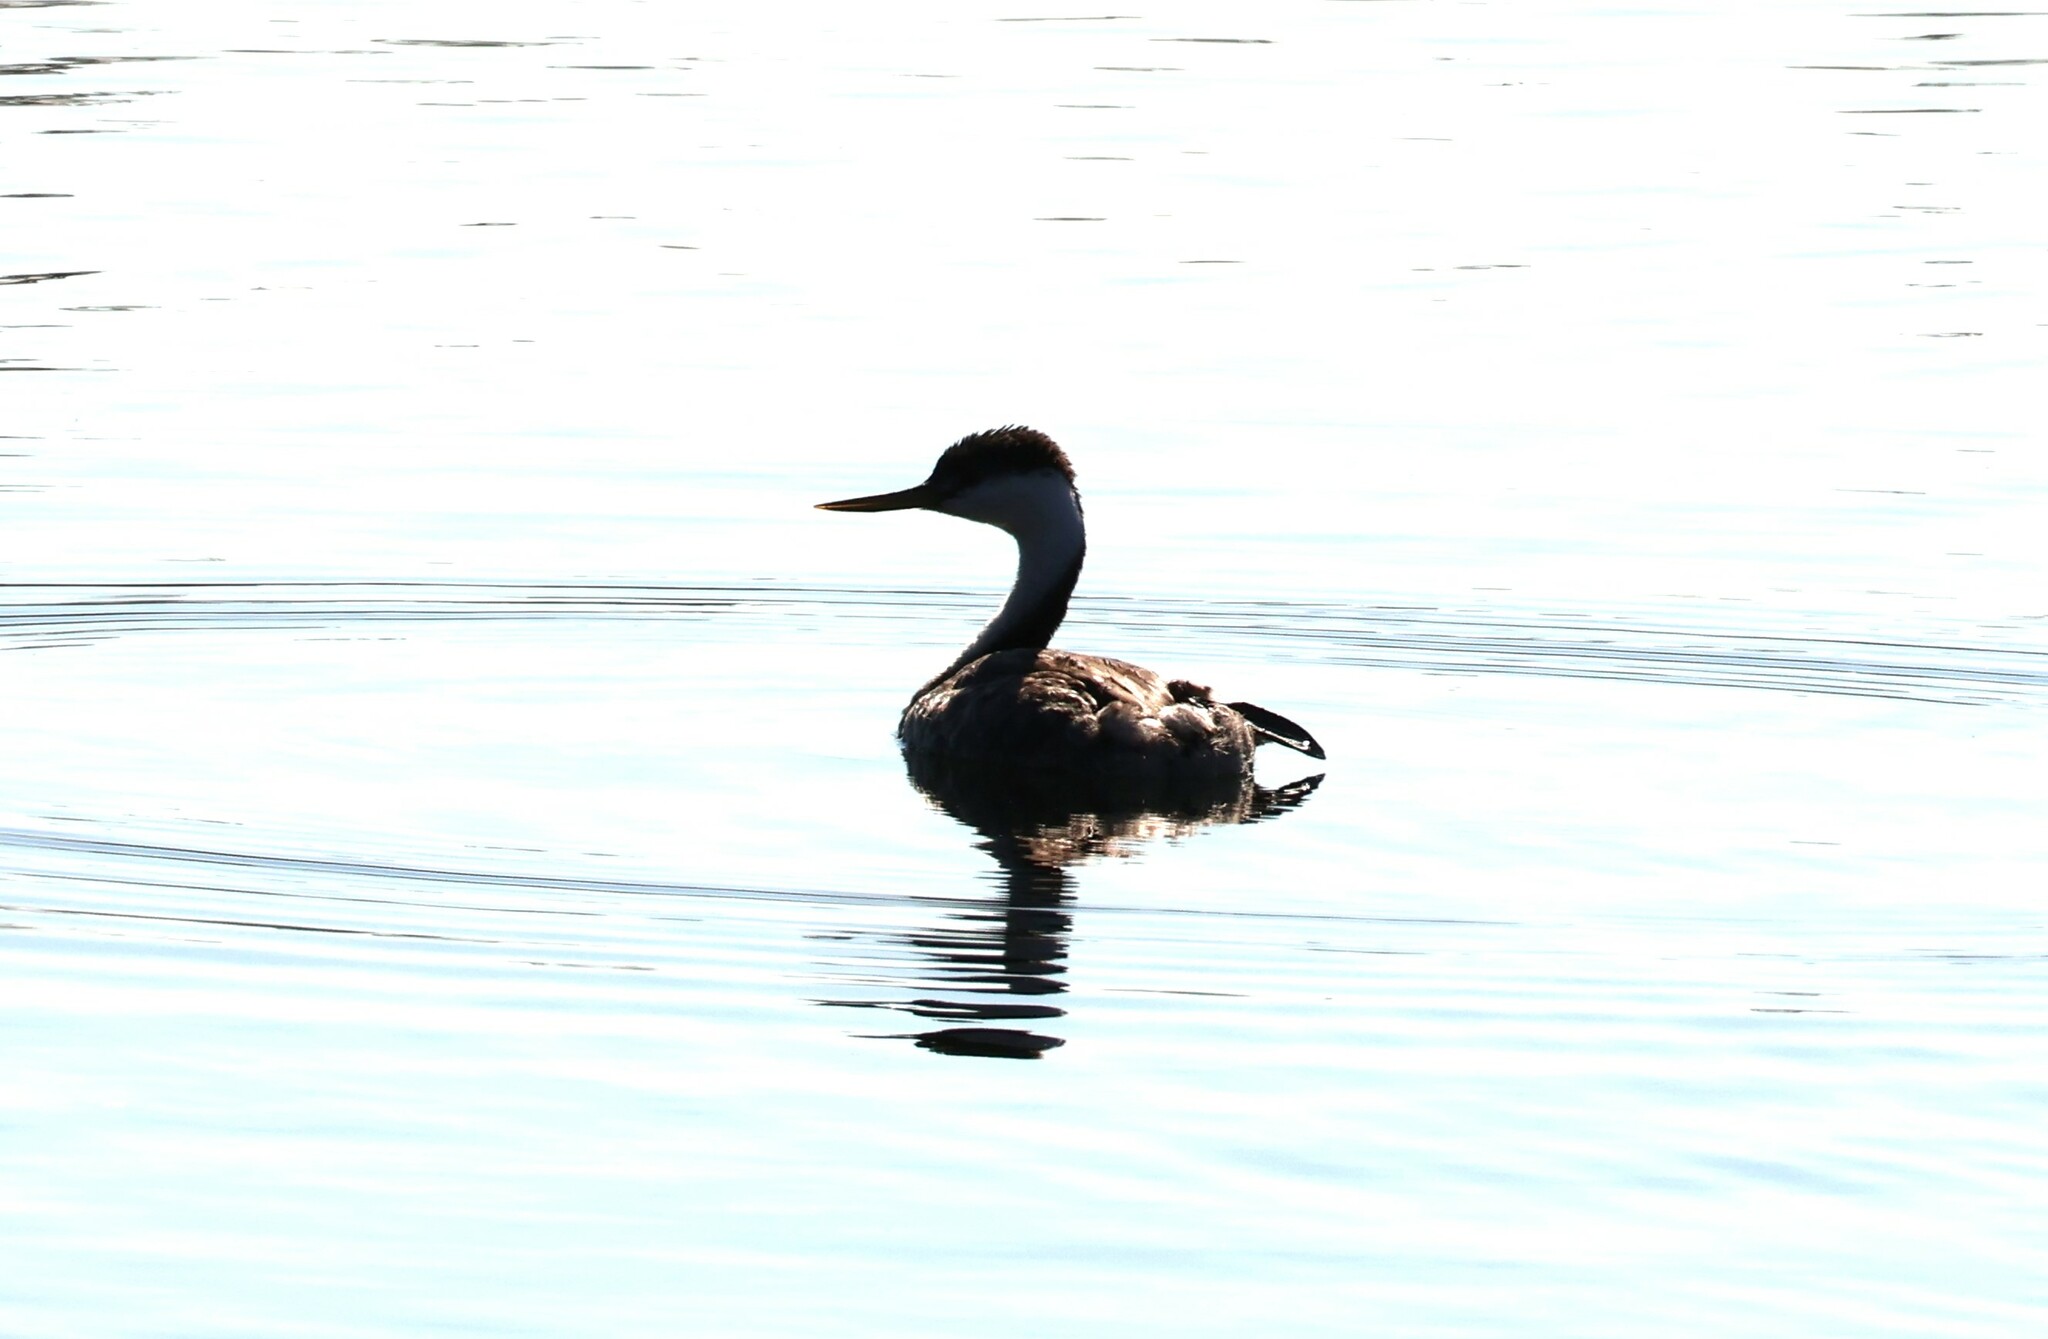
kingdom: Animalia
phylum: Chordata
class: Aves
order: Podicipediformes
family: Podicipedidae
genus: Aechmophorus
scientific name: Aechmophorus occidentalis
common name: Western grebe
